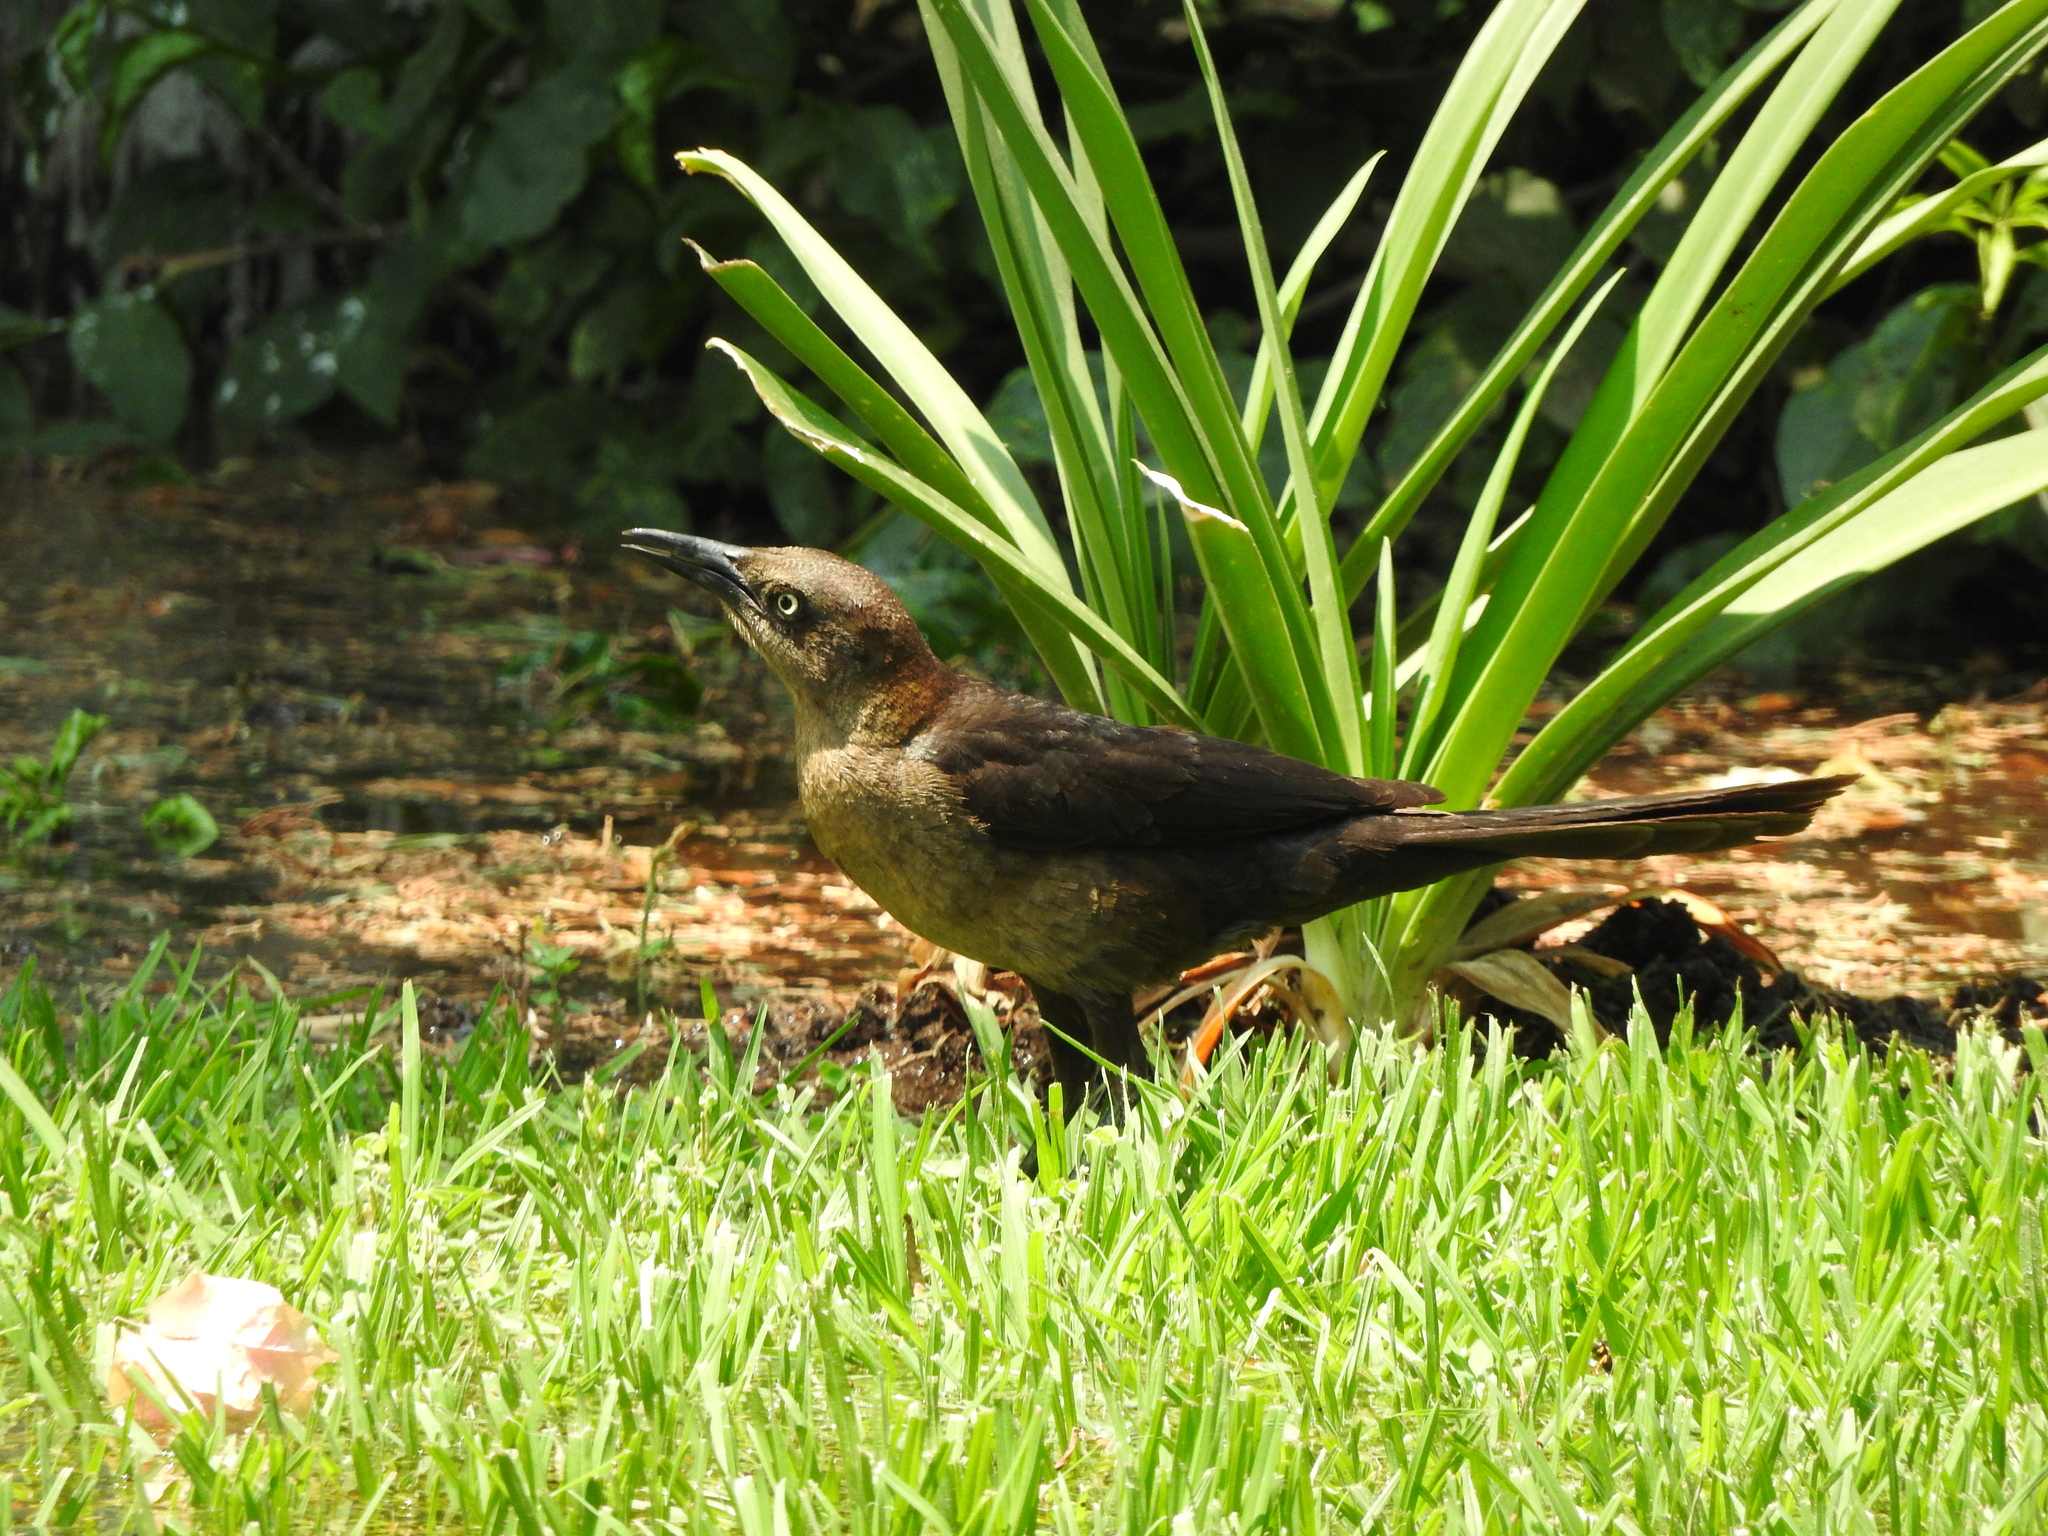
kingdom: Animalia
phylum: Chordata
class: Aves
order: Passeriformes
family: Icteridae
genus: Quiscalus
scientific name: Quiscalus mexicanus
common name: Great-tailed grackle
